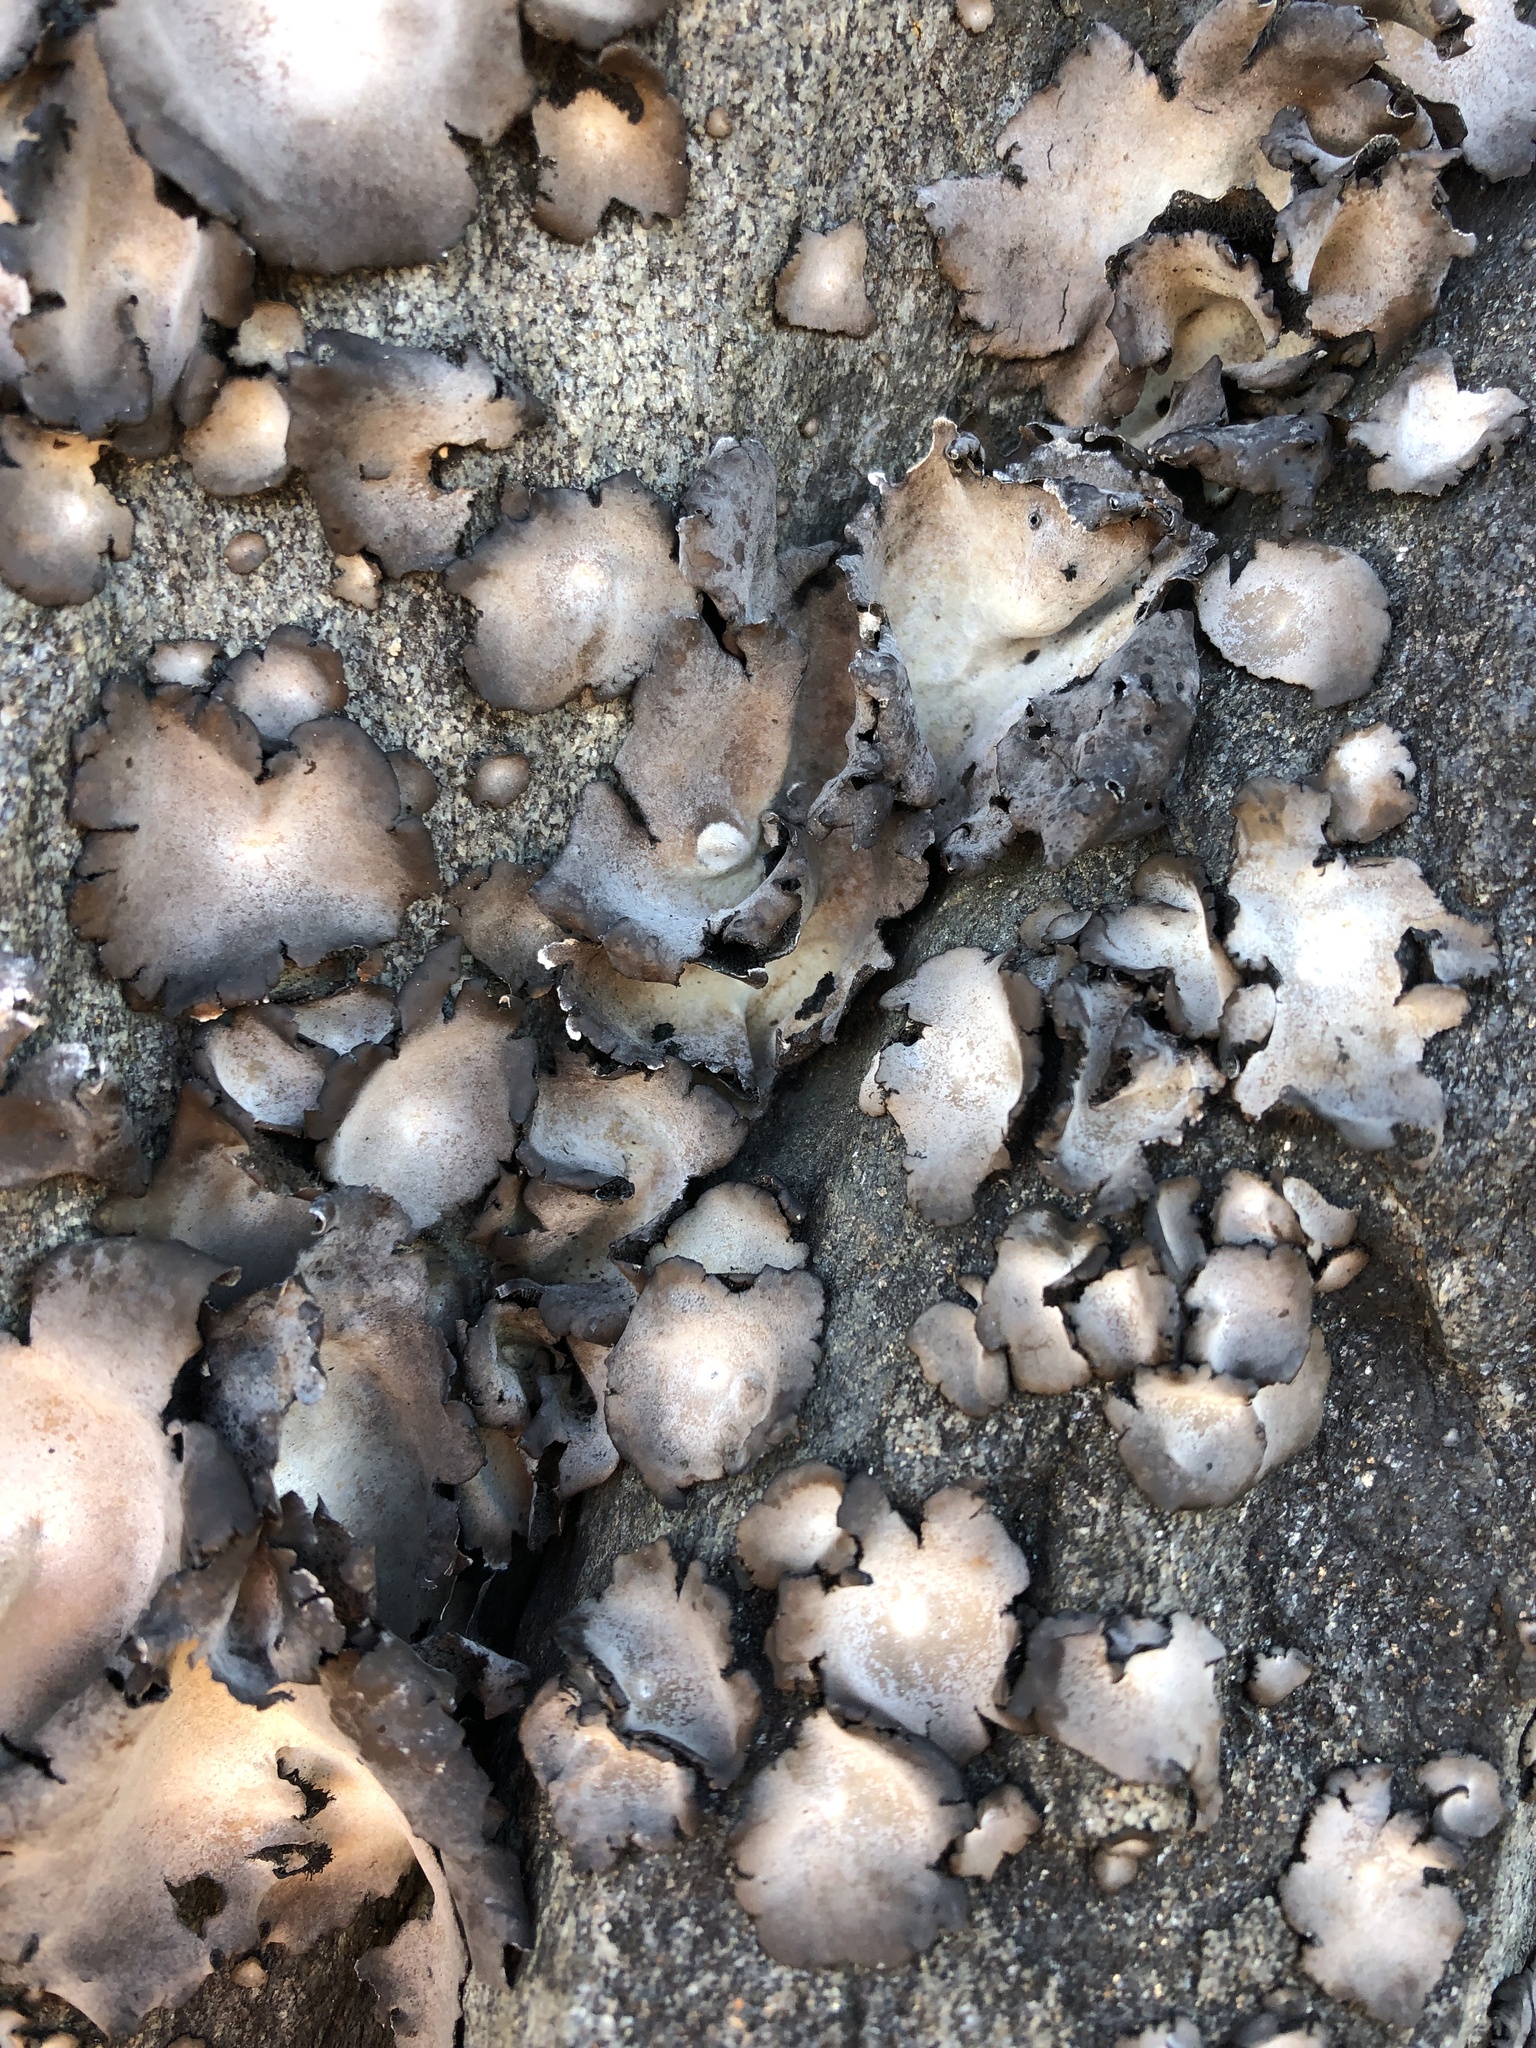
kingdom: Fungi
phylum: Ascomycota
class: Lecanoromycetes
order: Umbilicariales
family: Umbilicariaceae
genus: Umbilicaria
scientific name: Umbilicaria americana
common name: Frosted rock tripe
